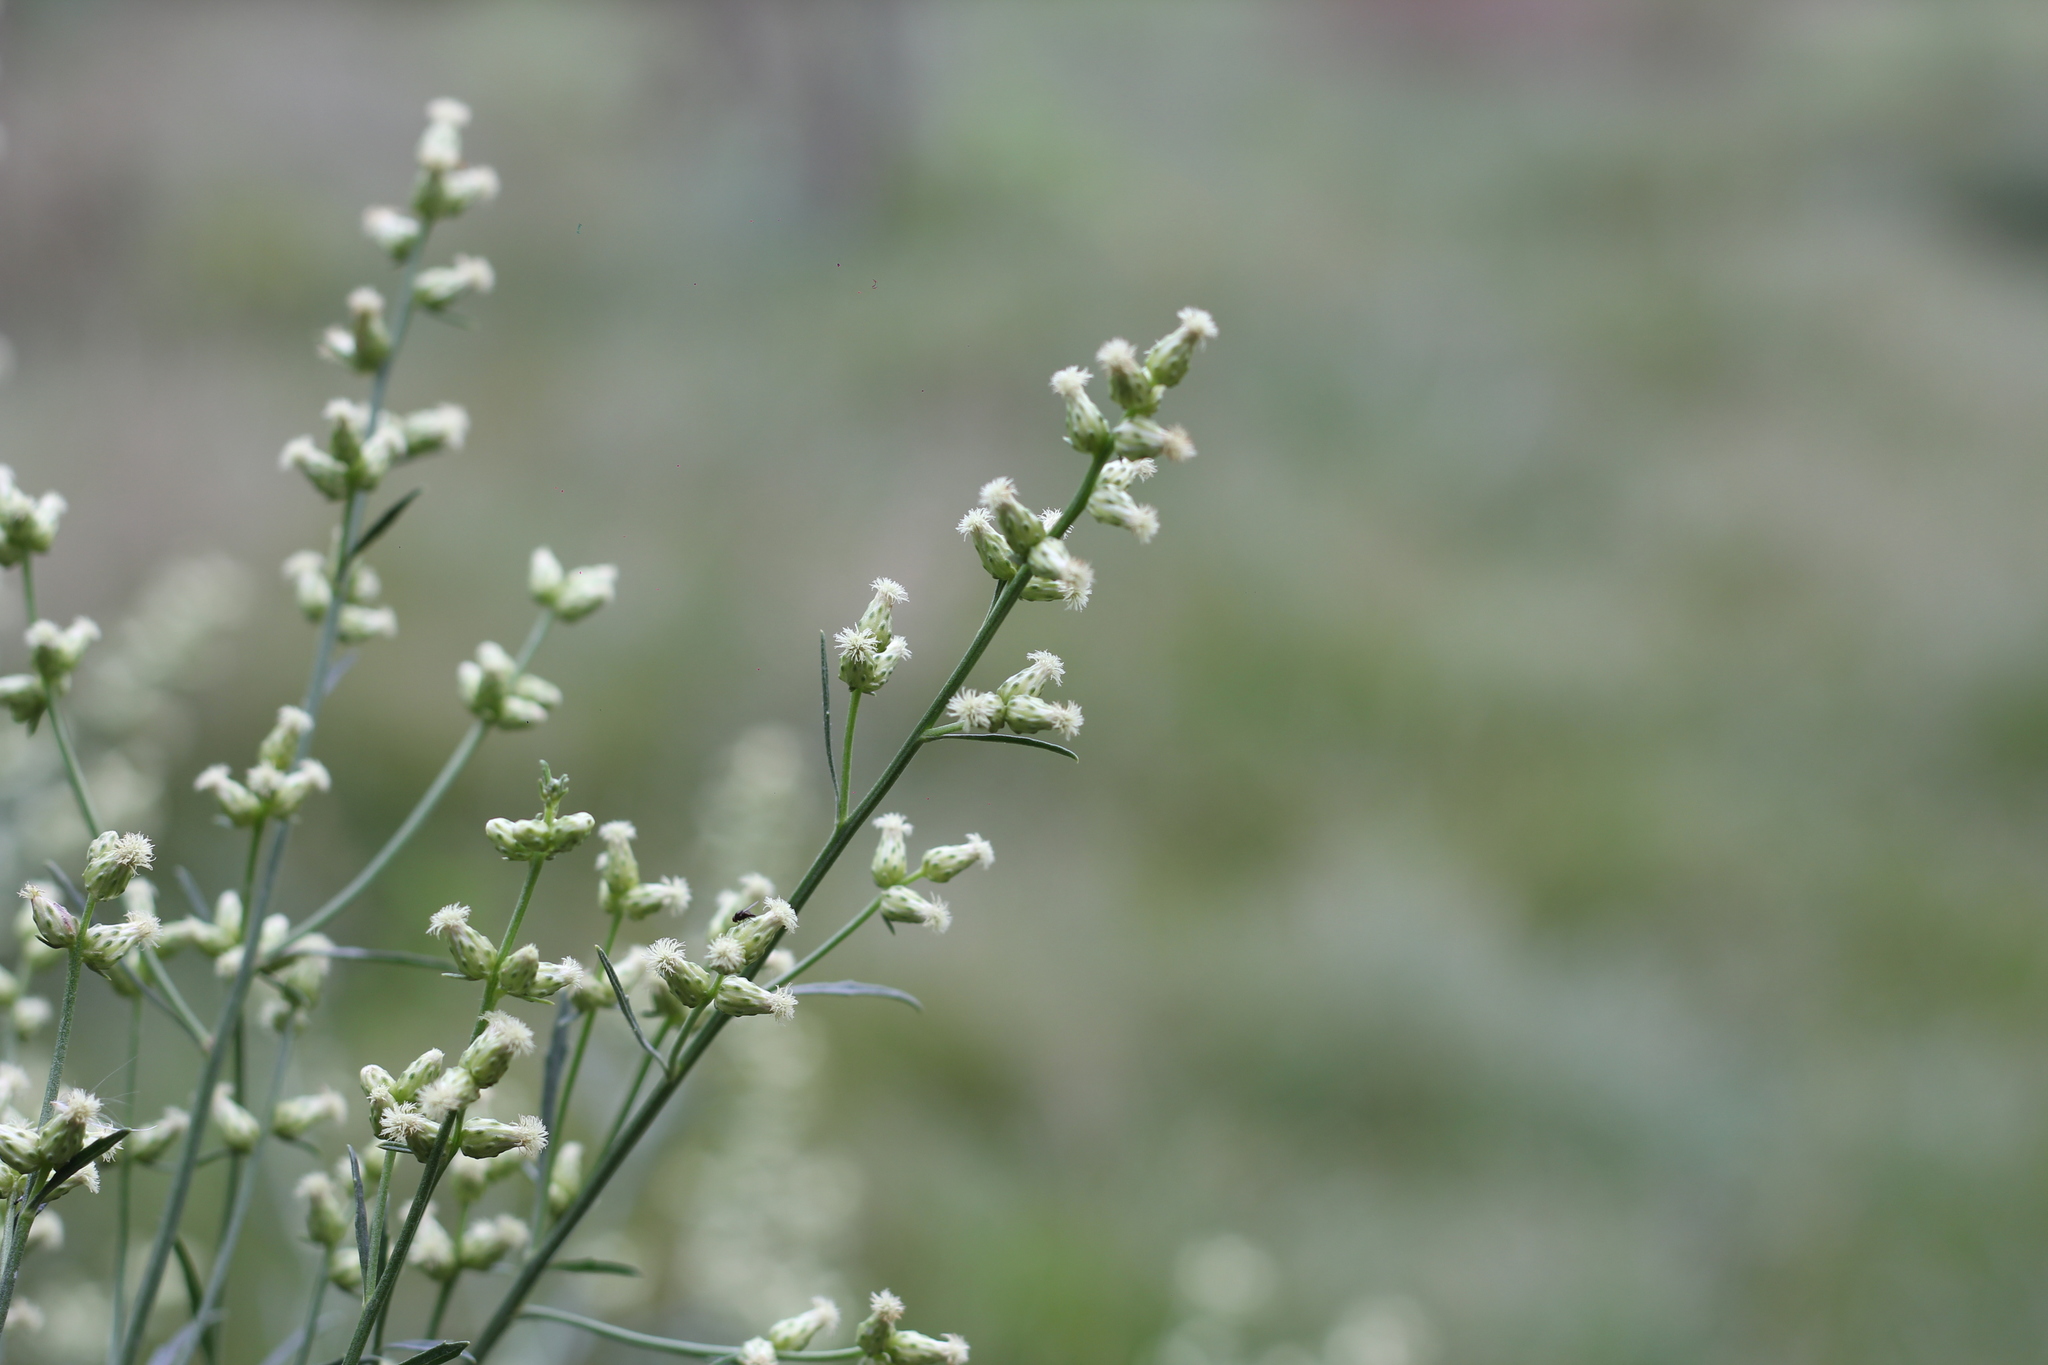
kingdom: Plantae
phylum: Tracheophyta
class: Magnoliopsida
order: Asterales
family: Asteraceae
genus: Baccharis
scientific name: Baccharis spicata
